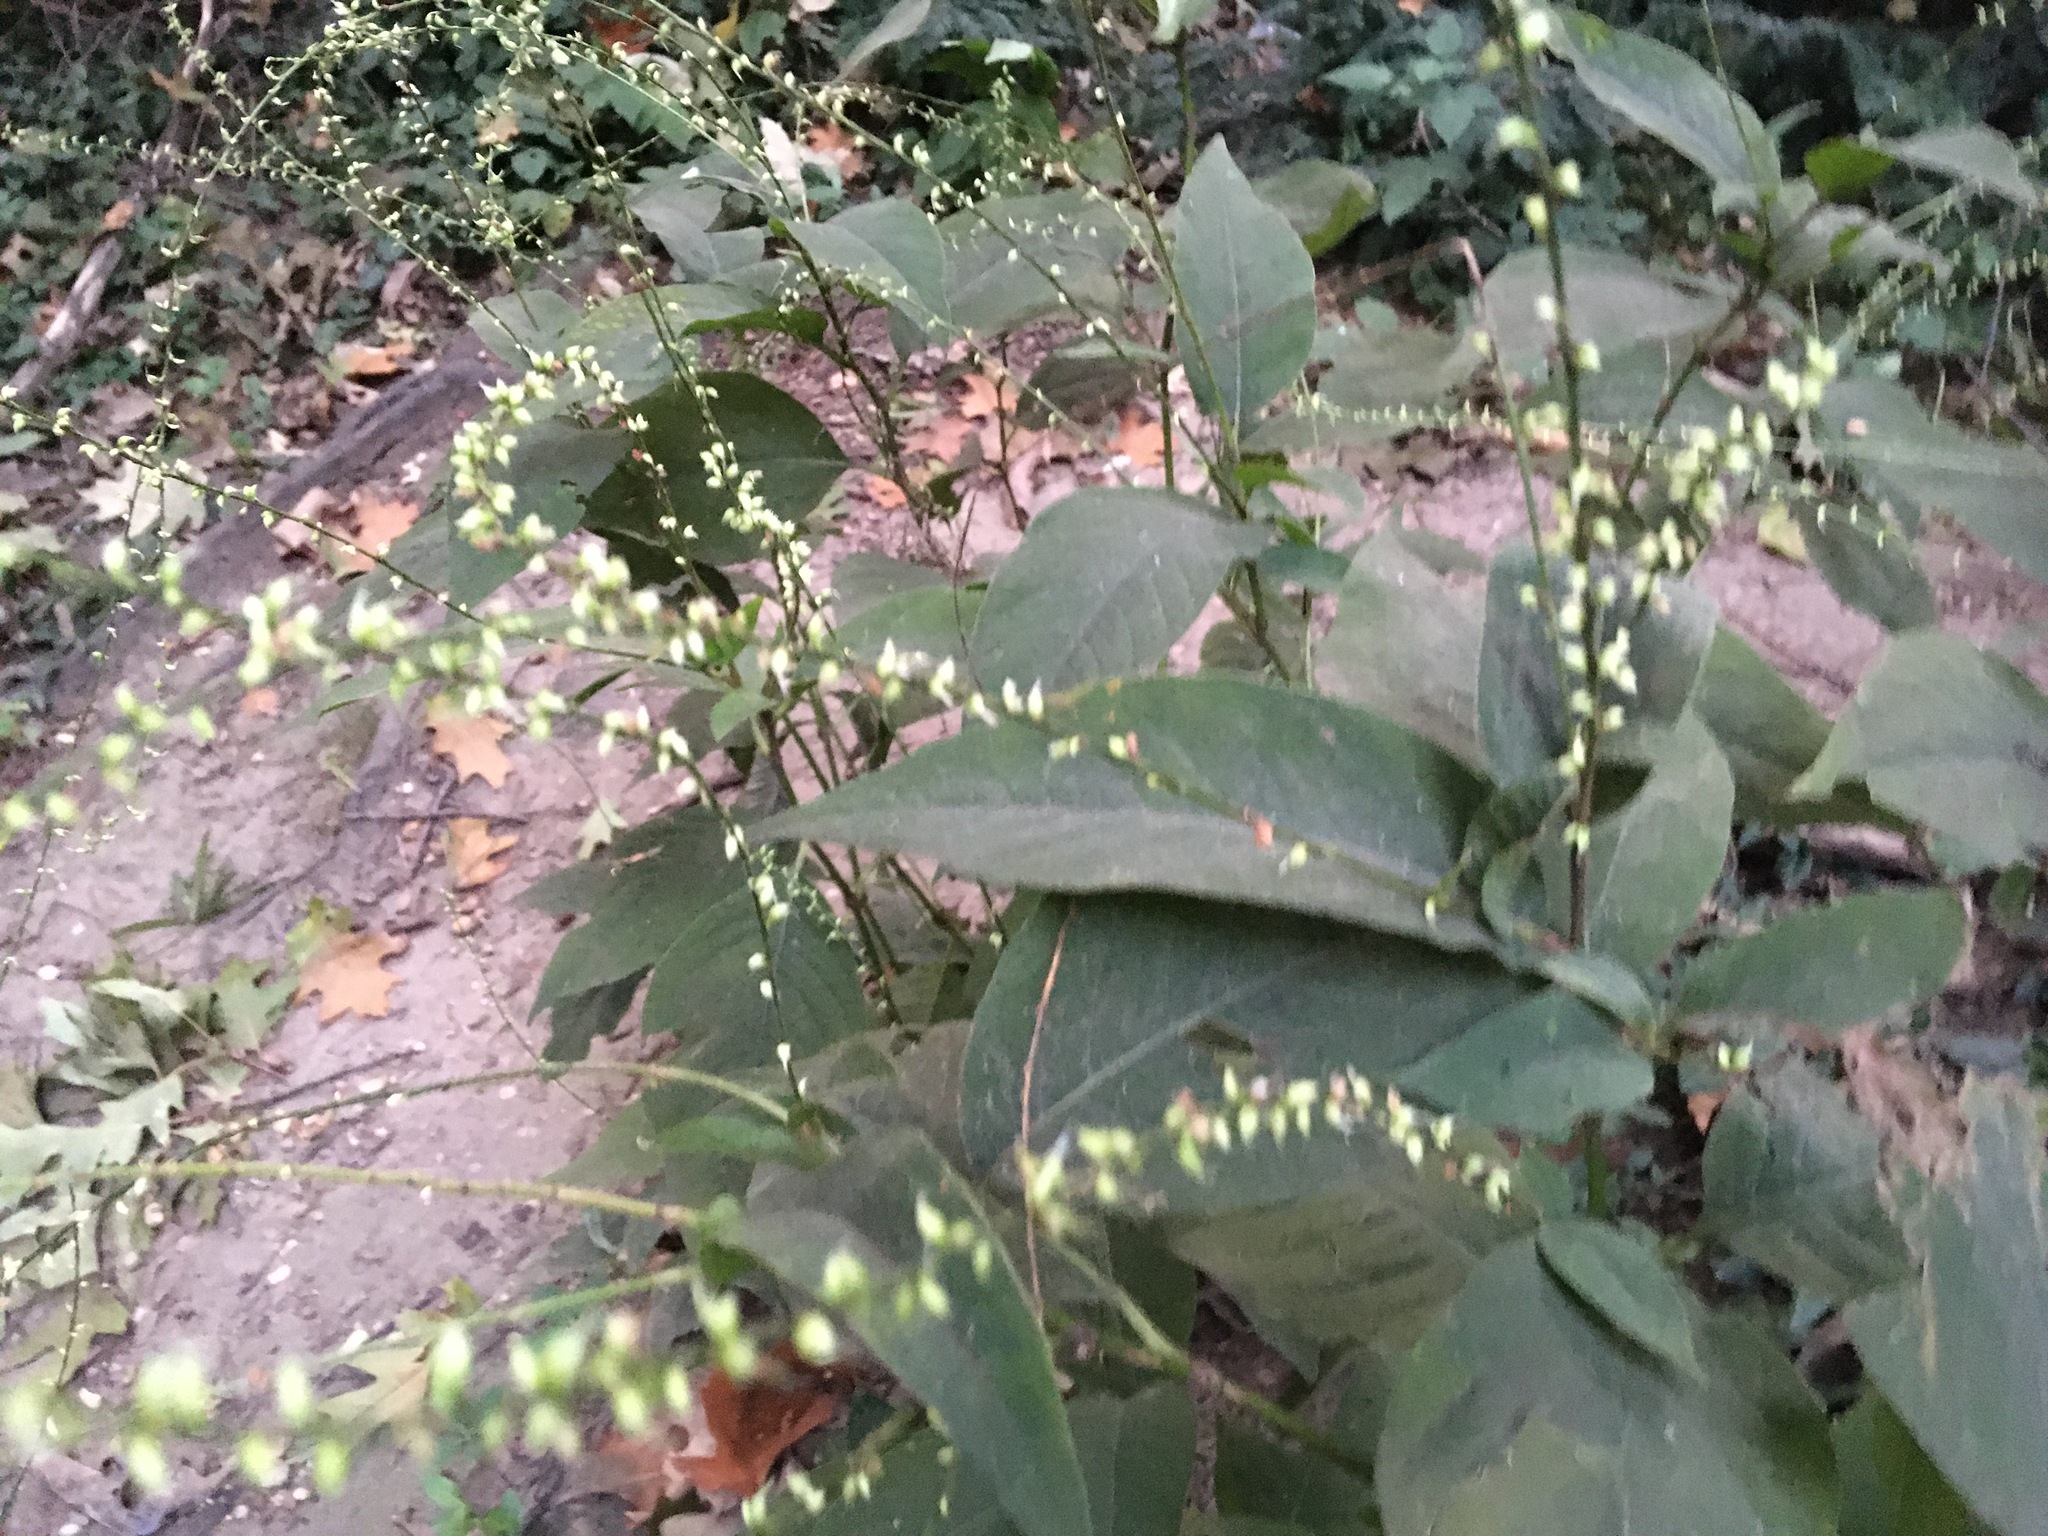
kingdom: Plantae
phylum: Tracheophyta
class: Magnoliopsida
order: Caryophyllales
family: Polygonaceae
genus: Persicaria
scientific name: Persicaria virginiana
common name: Jumpseed
